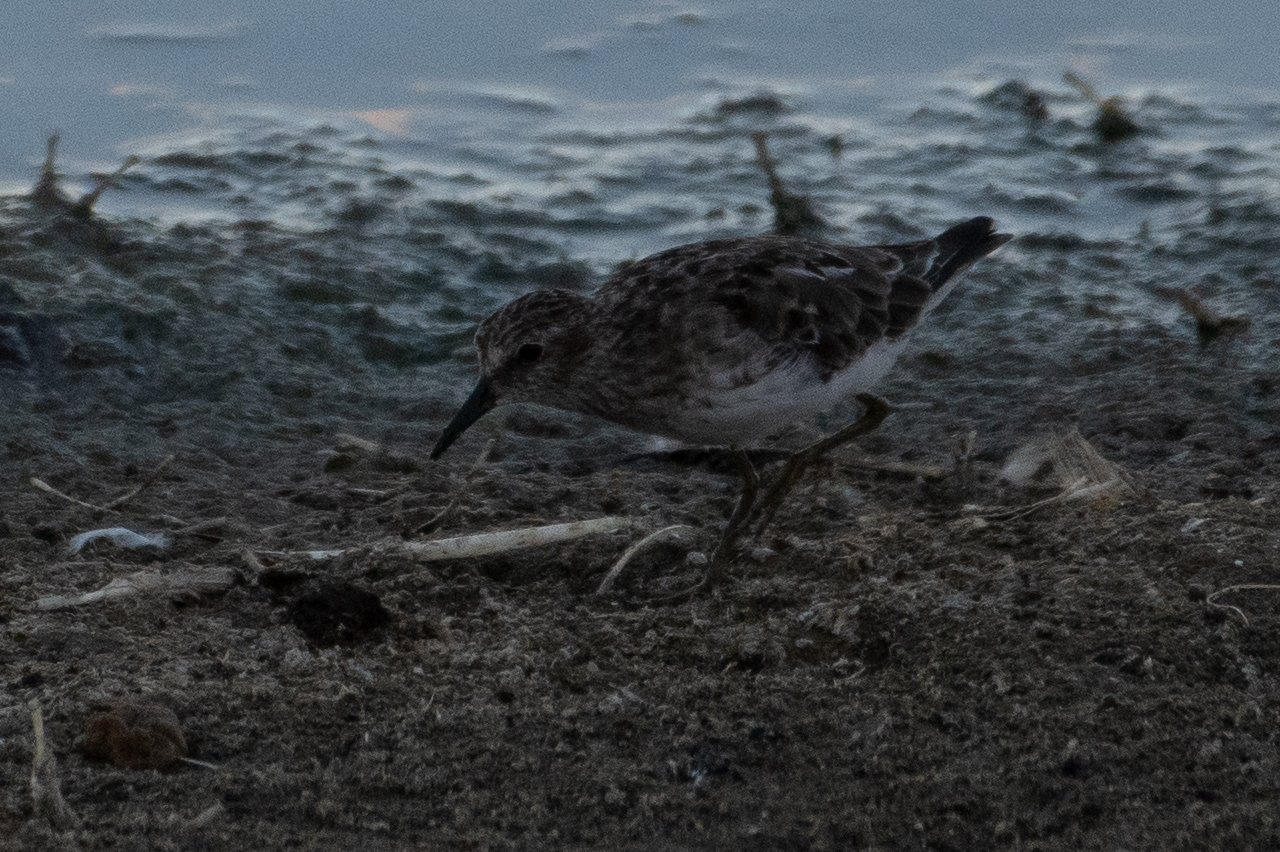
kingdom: Animalia
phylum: Chordata
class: Aves
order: Charadriiformes
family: Scolopacidae
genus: Calidris
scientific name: Calidris minutilla
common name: Least sandpiper
